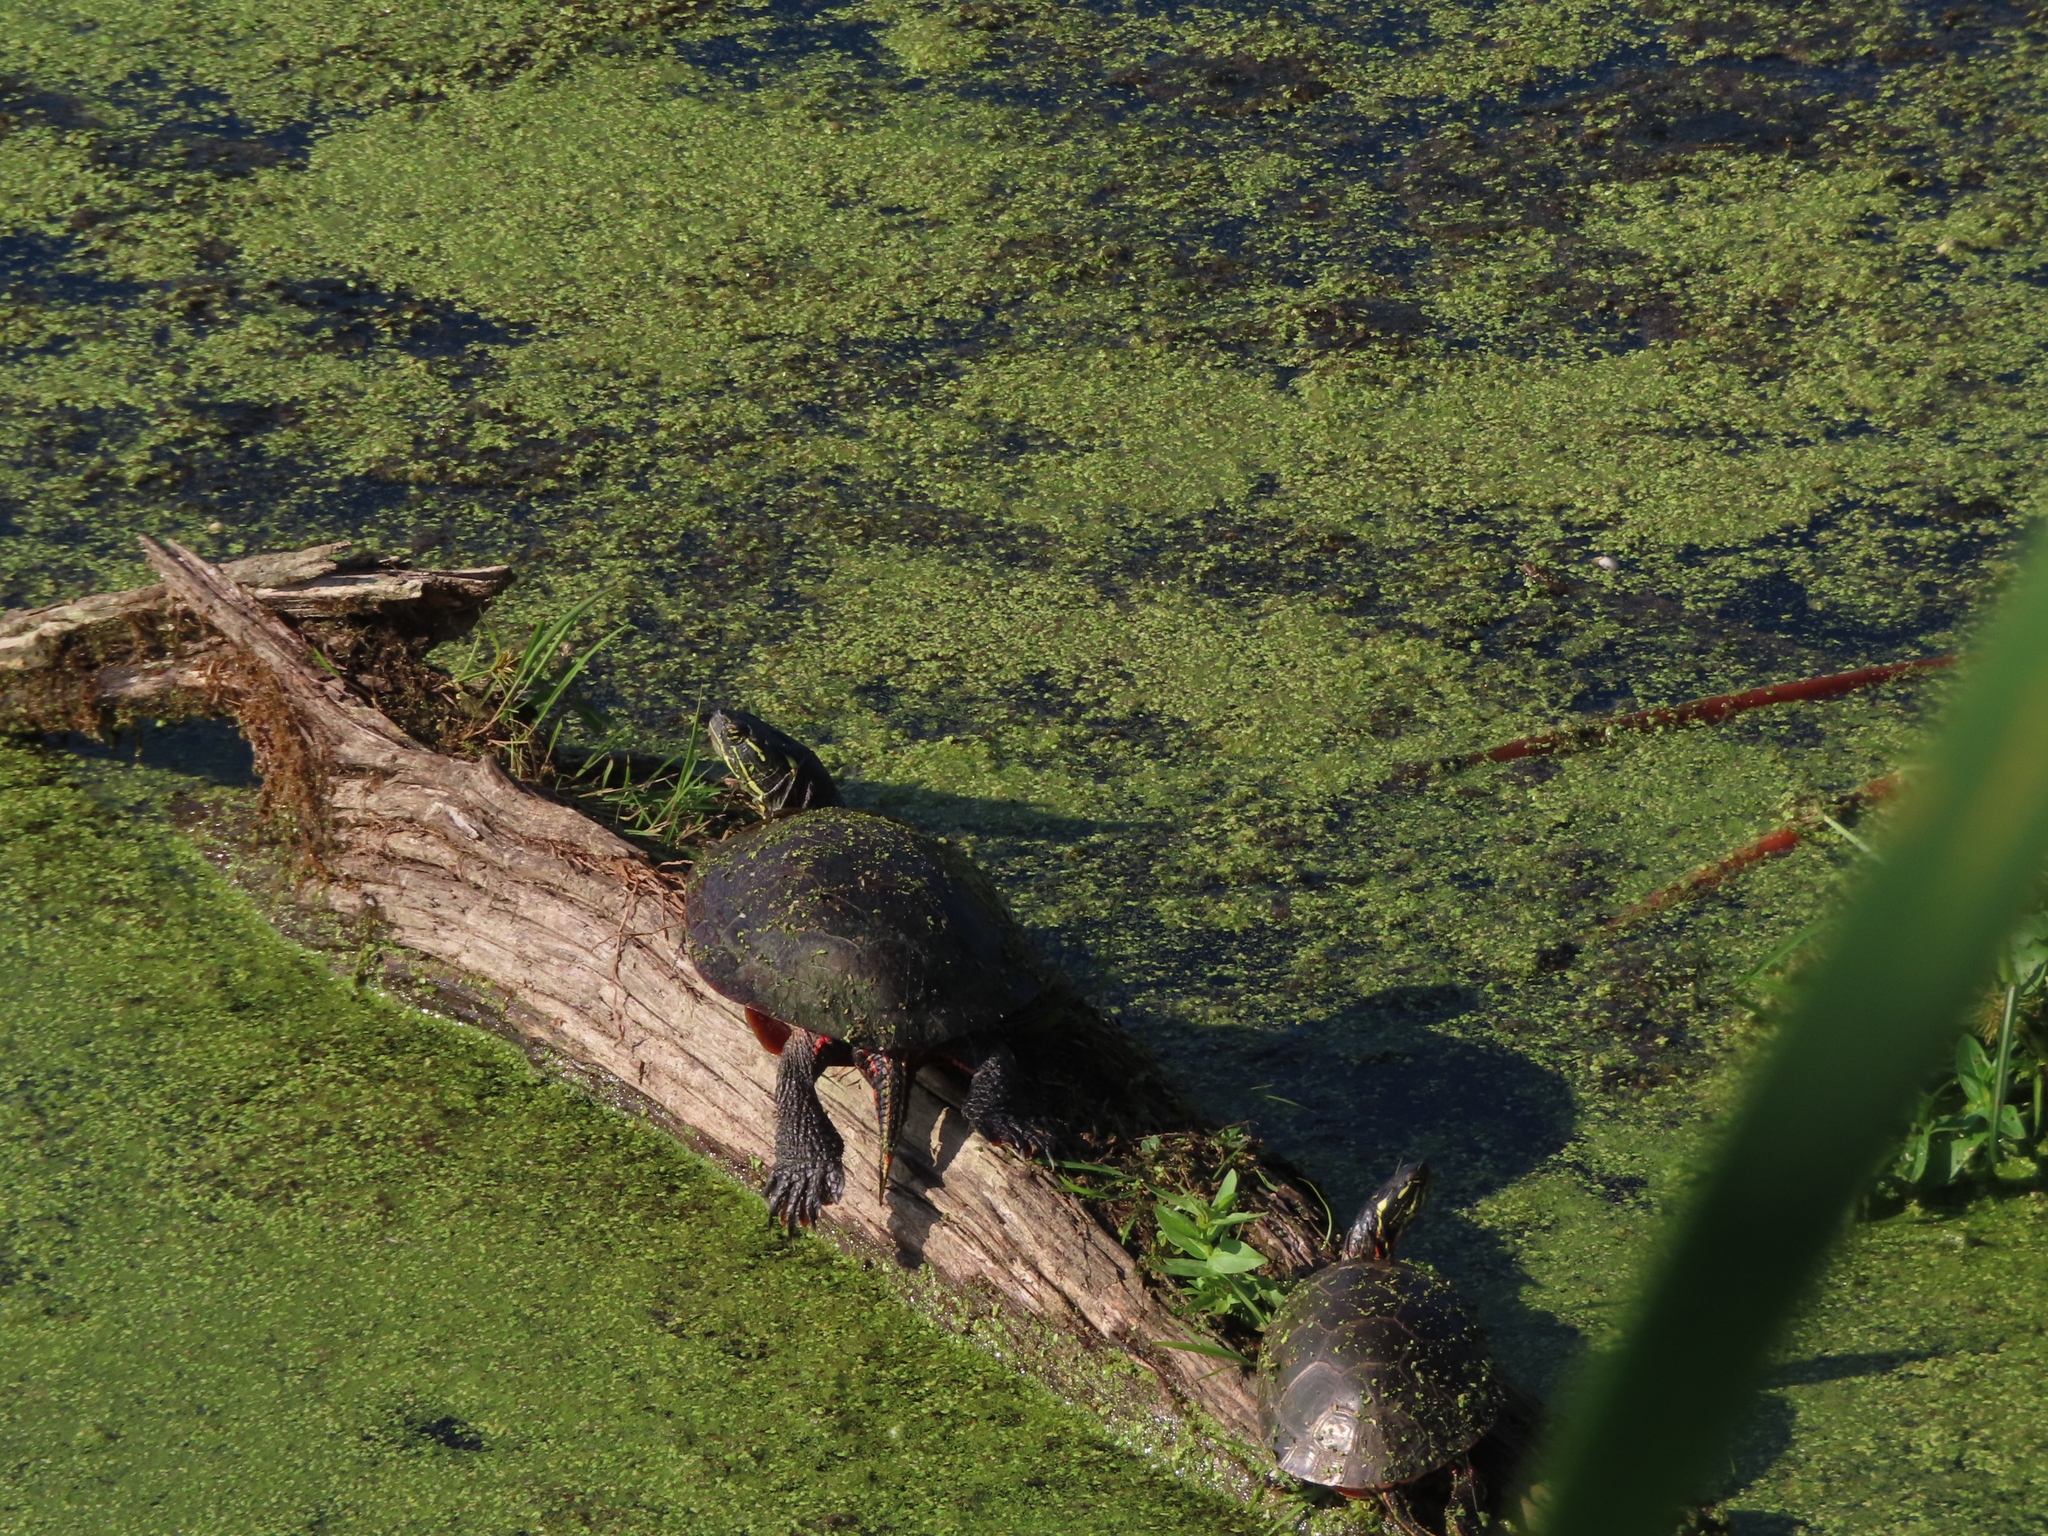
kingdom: Animalia
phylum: Chordata
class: Testudines
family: Emydidae
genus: Chrysemys
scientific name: Chrysemys picta
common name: Painted turtle
